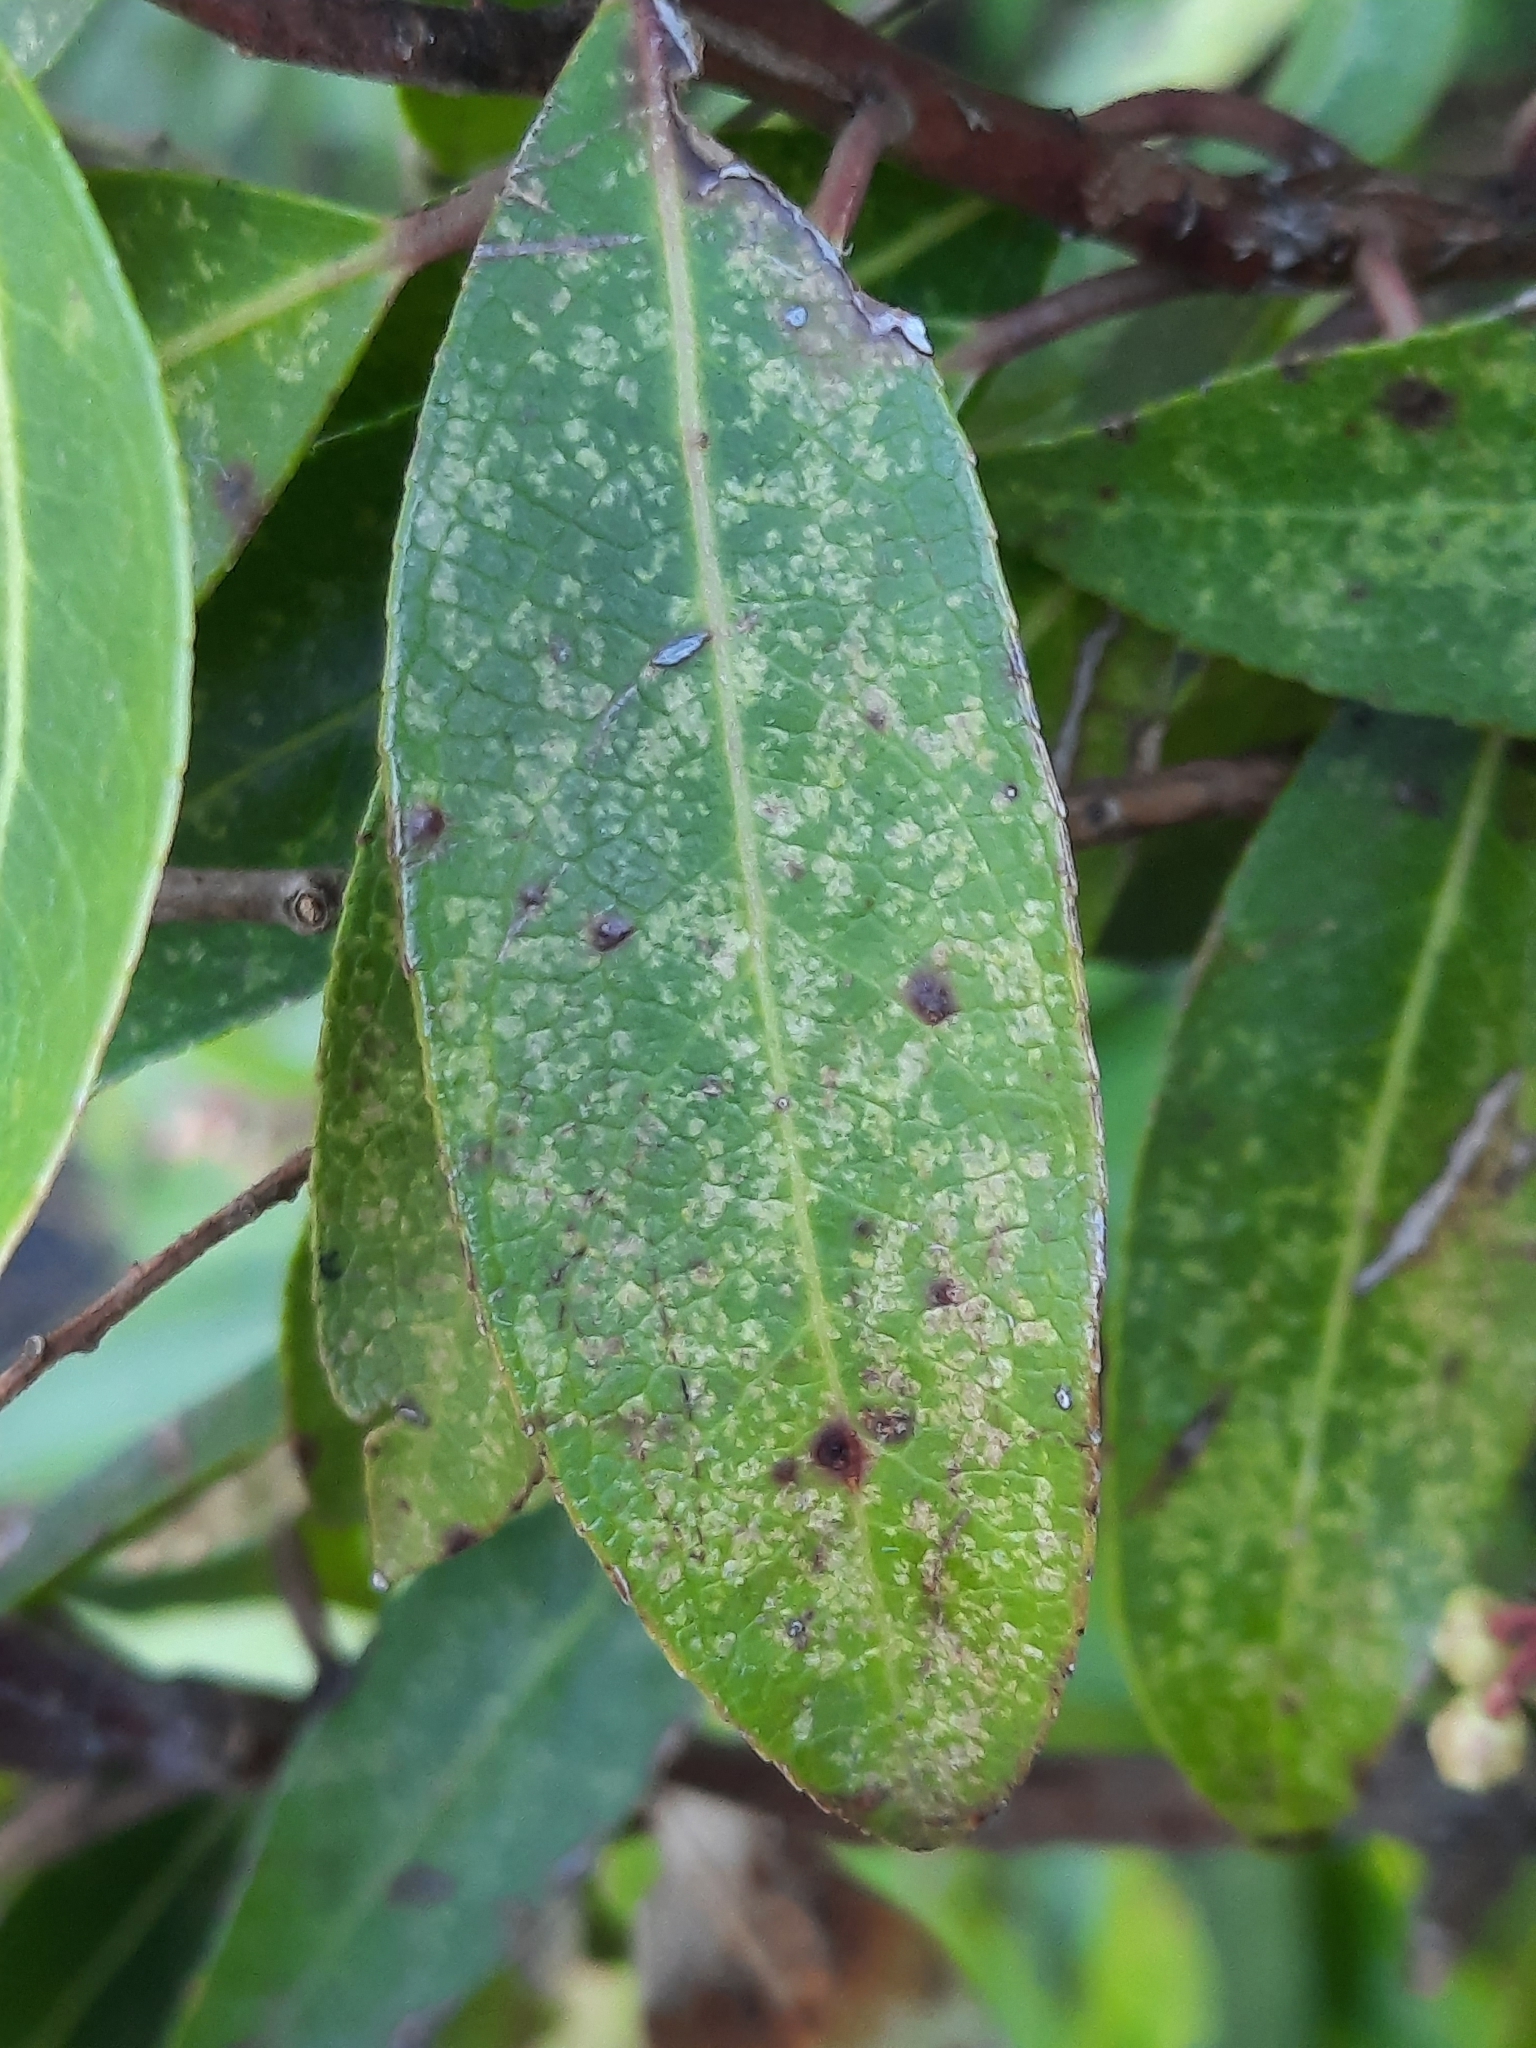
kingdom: Animalia
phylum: Arthropoda
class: Insecta
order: Hemiptera
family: Tingidae
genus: Stephanitis
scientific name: Stephanitis takeyai
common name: Andromeda lacebug
